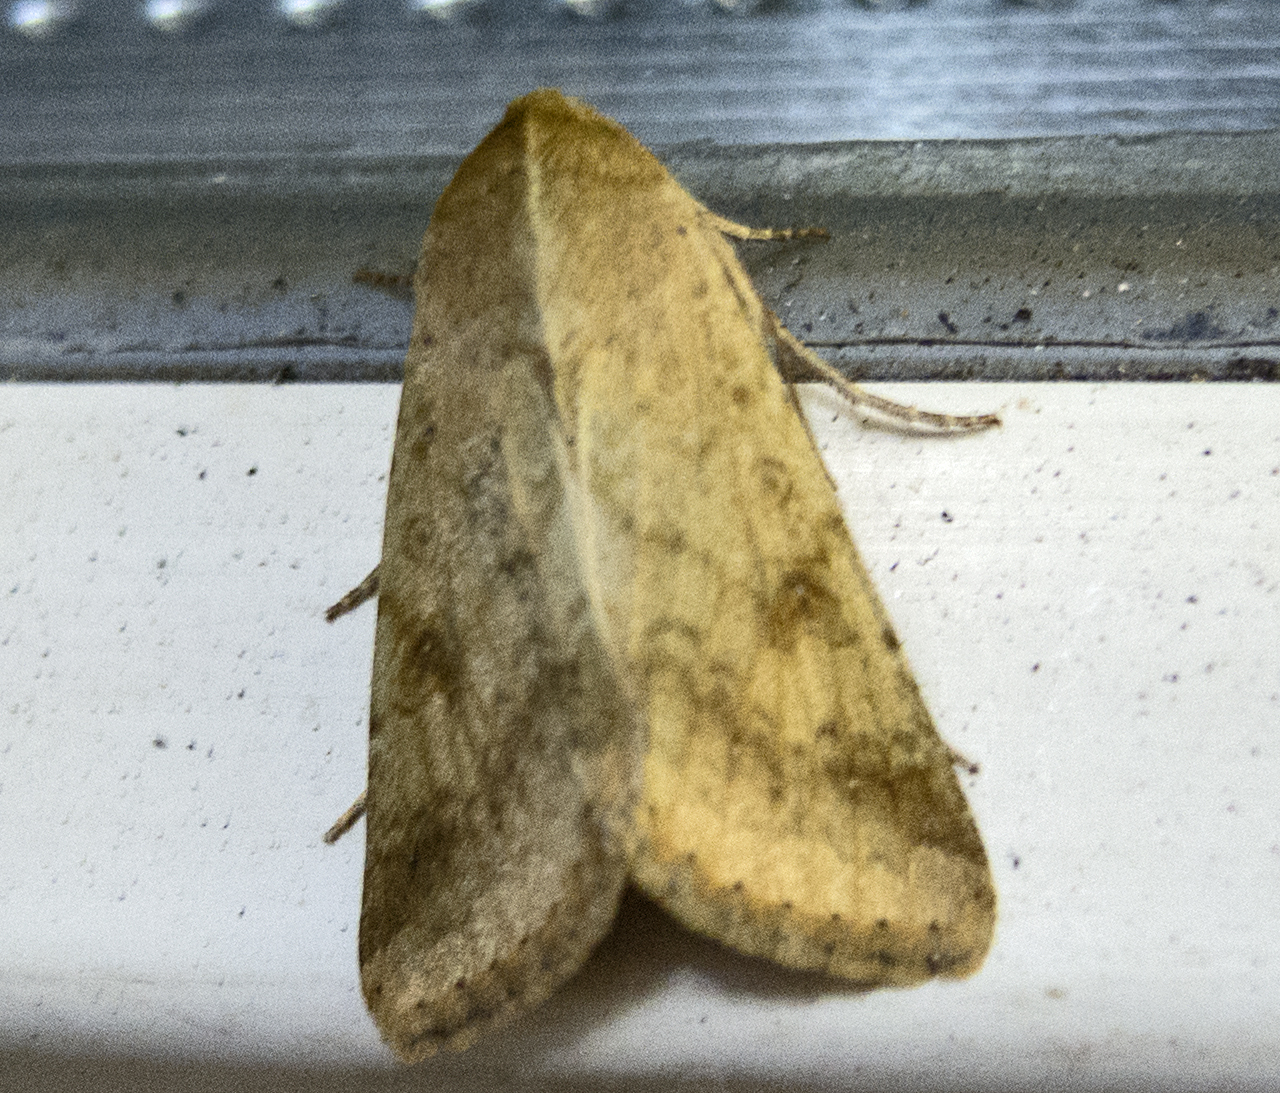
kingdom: Animalia
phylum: Arthropoda
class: Insecta
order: Lepidoptera
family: Noctuidae
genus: Helicoverpa
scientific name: Helicoverpa armigera
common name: Cotton bollworm
